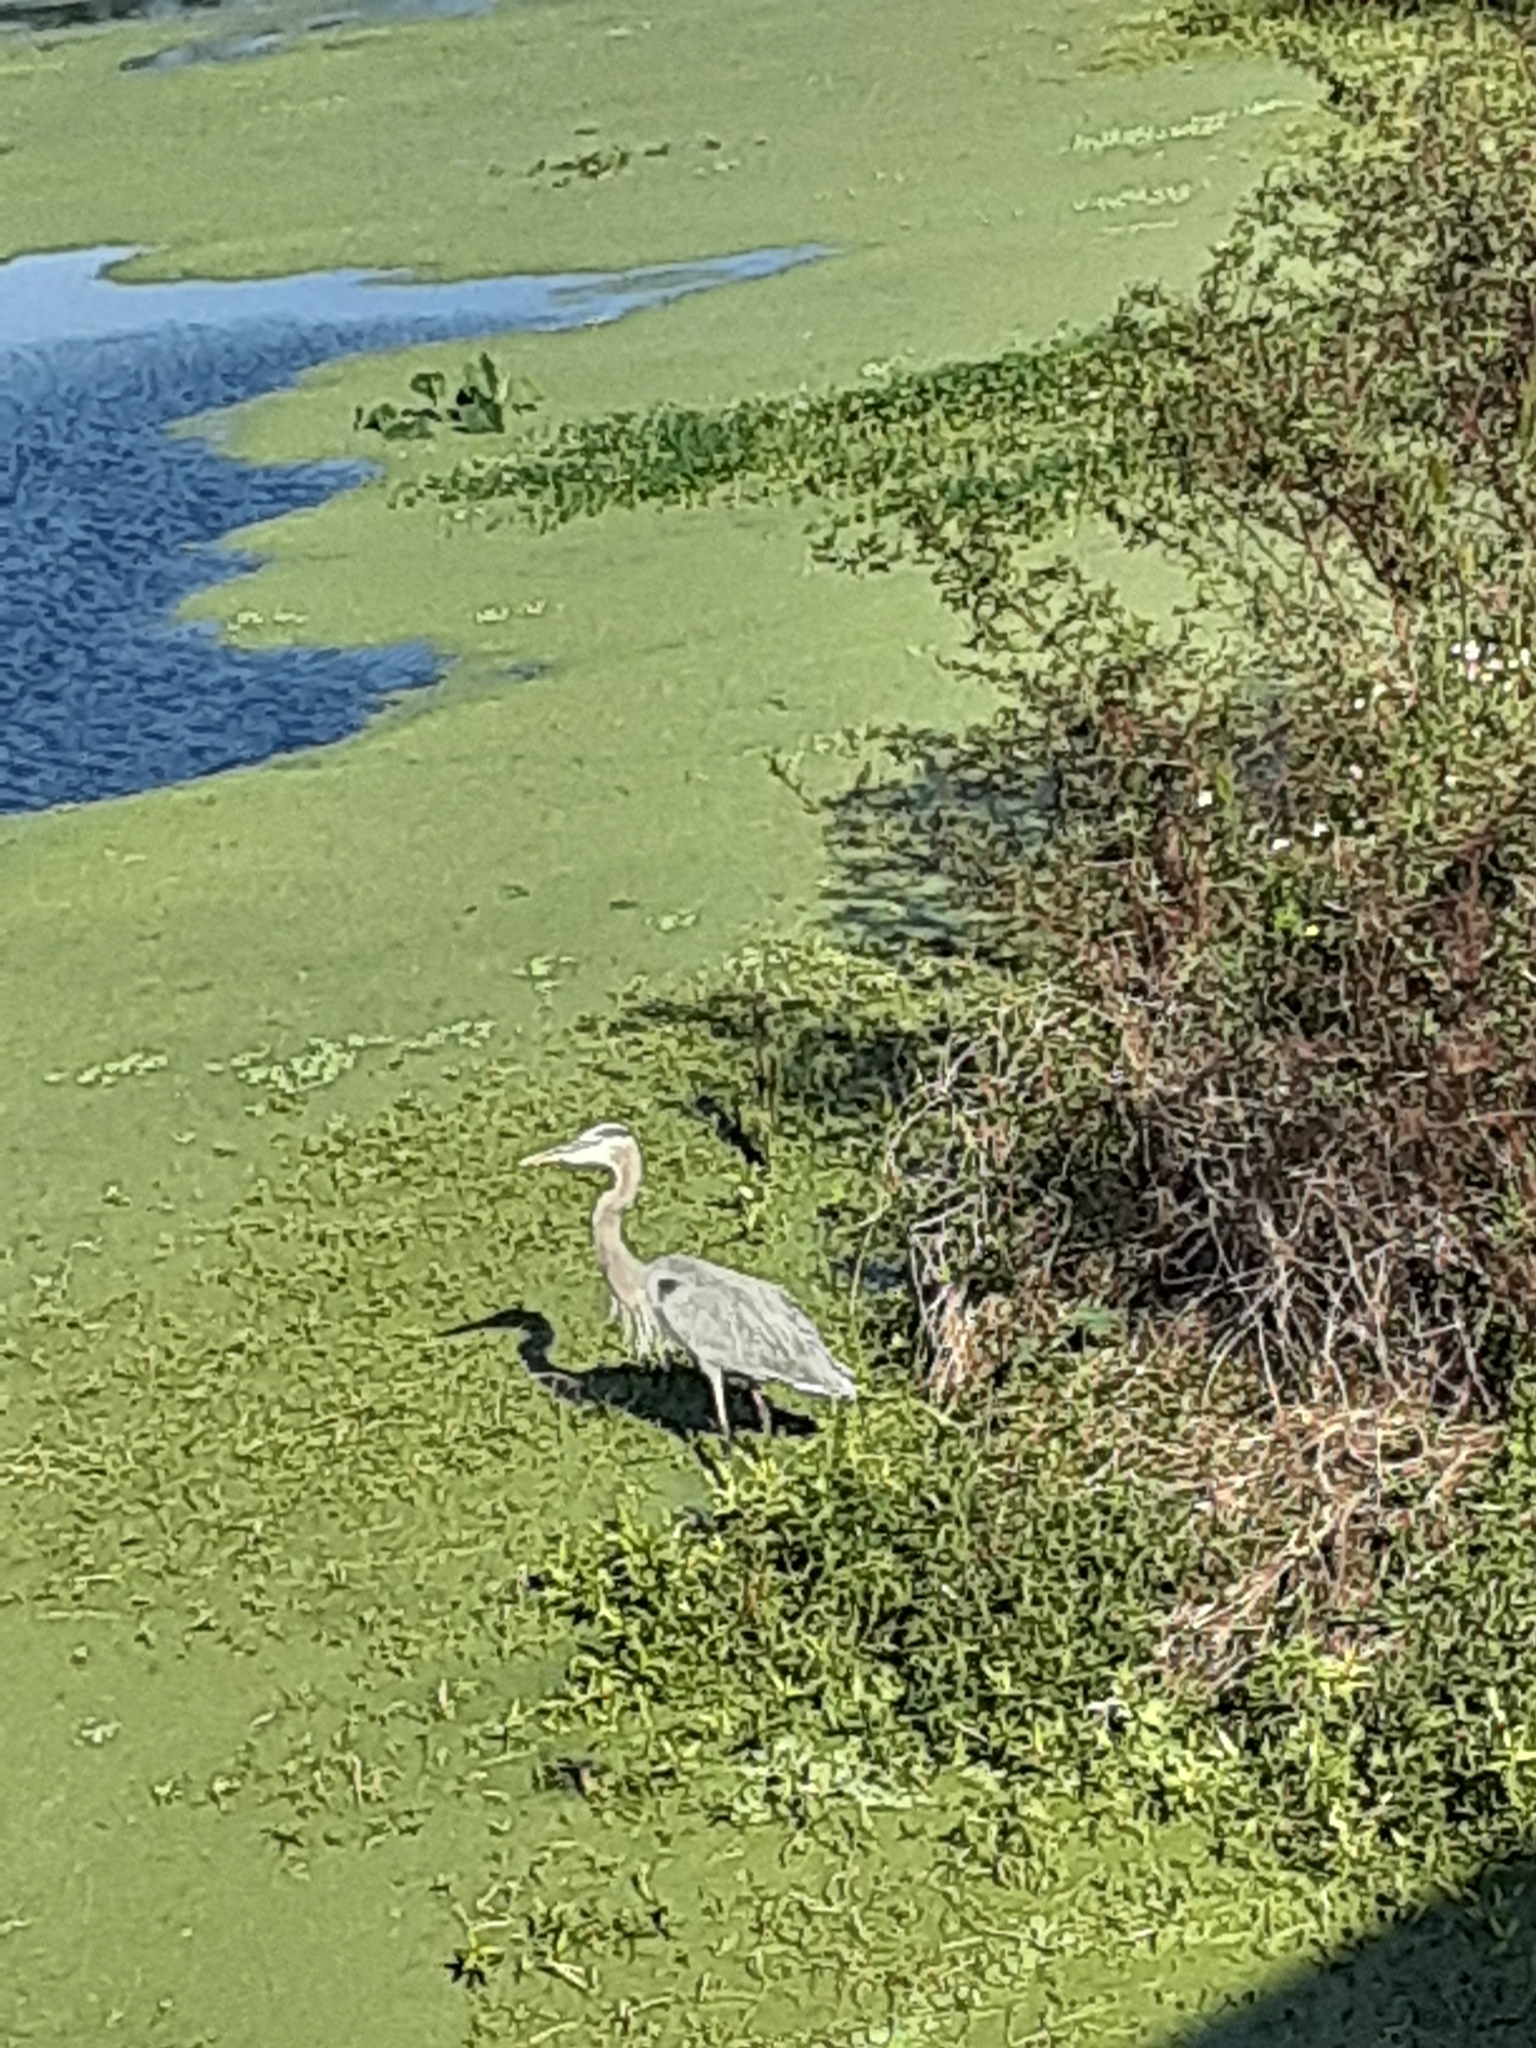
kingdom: Animalia
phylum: Chordata
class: Aves
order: Pelecaniformes
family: Ardeidae
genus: Ardea
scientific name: Ardea herodias
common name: Great blue heron
